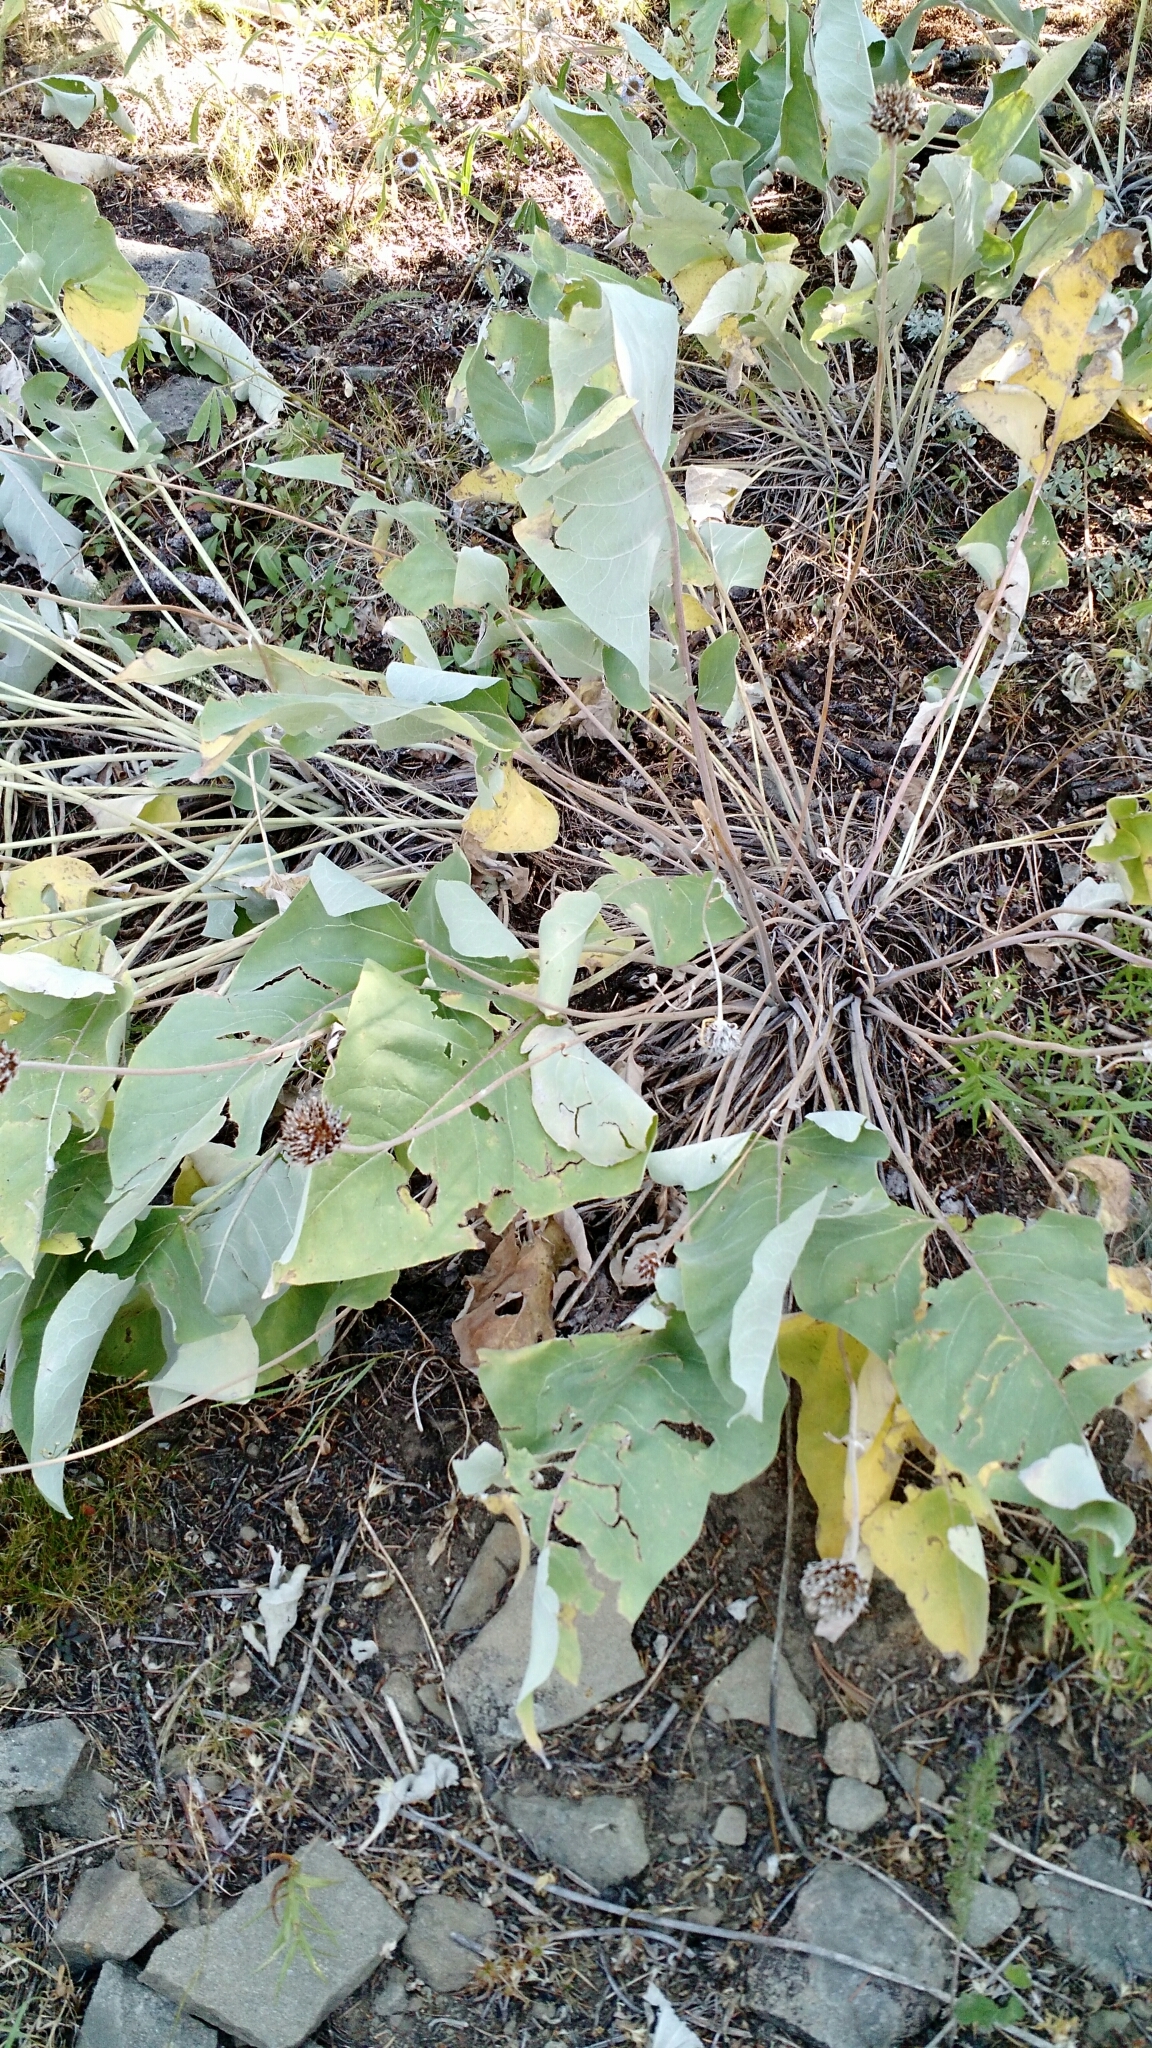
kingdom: Plantae
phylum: Tracheophyta
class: Magnoliopsida
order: Asterales
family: Asteraceae
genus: Wyethia
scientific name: Wyethia sagittata
